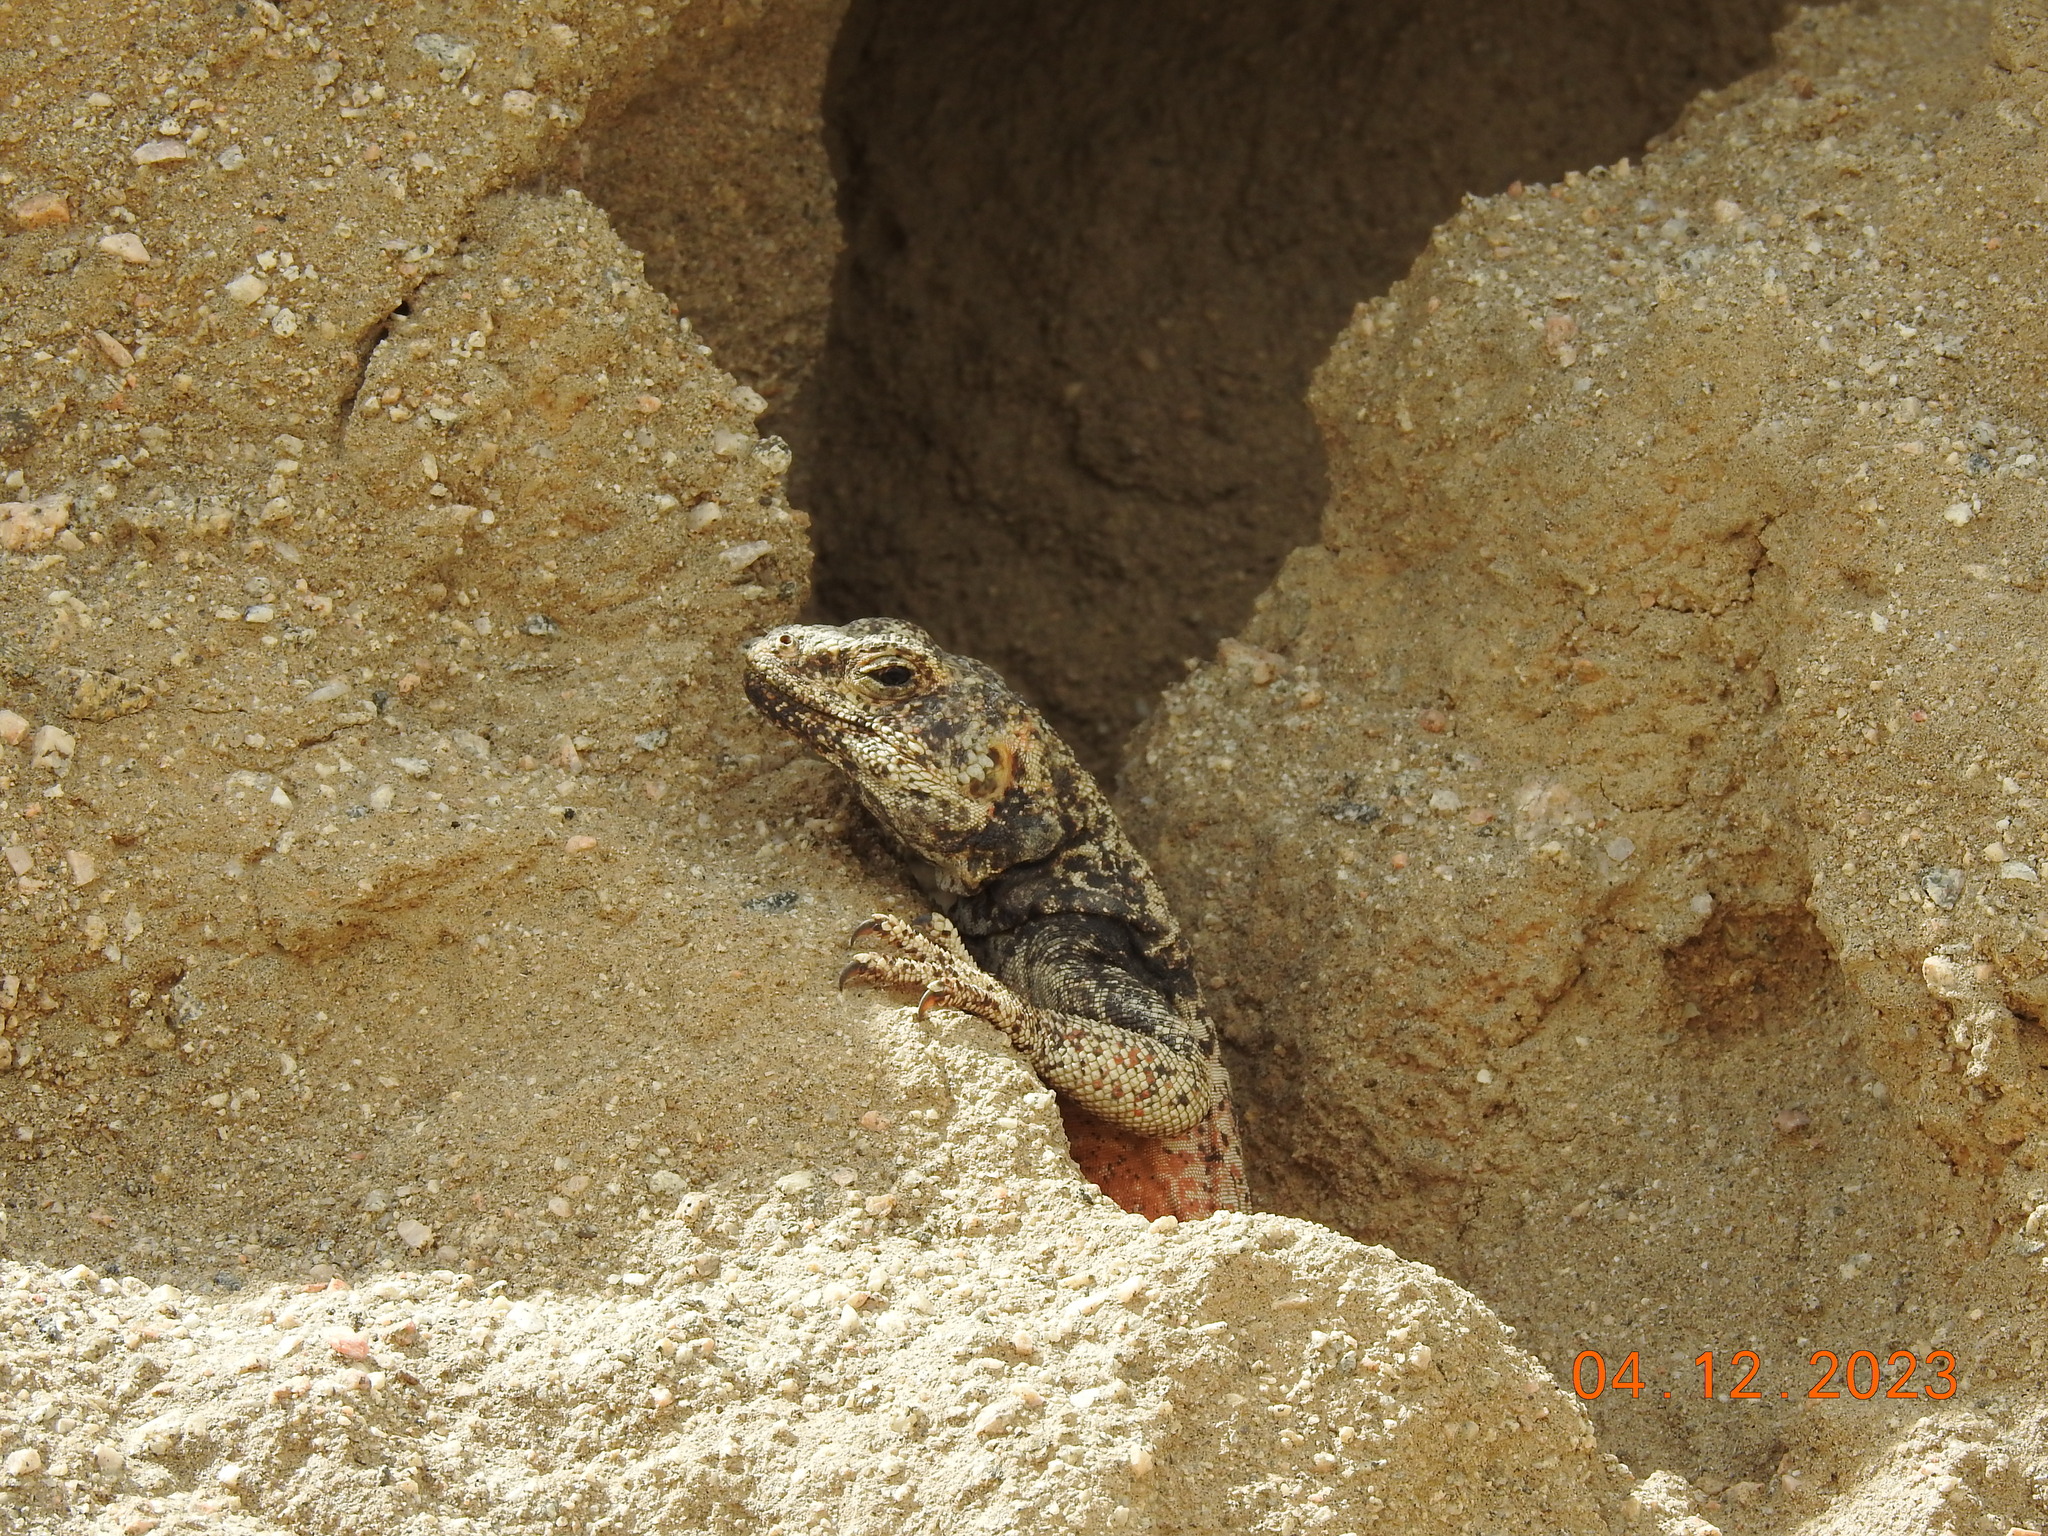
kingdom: Animalia
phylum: Chordata
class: Squamata
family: Iguanidae
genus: Sauromalus
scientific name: Sauromalus ater
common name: Northern chuckwalla
